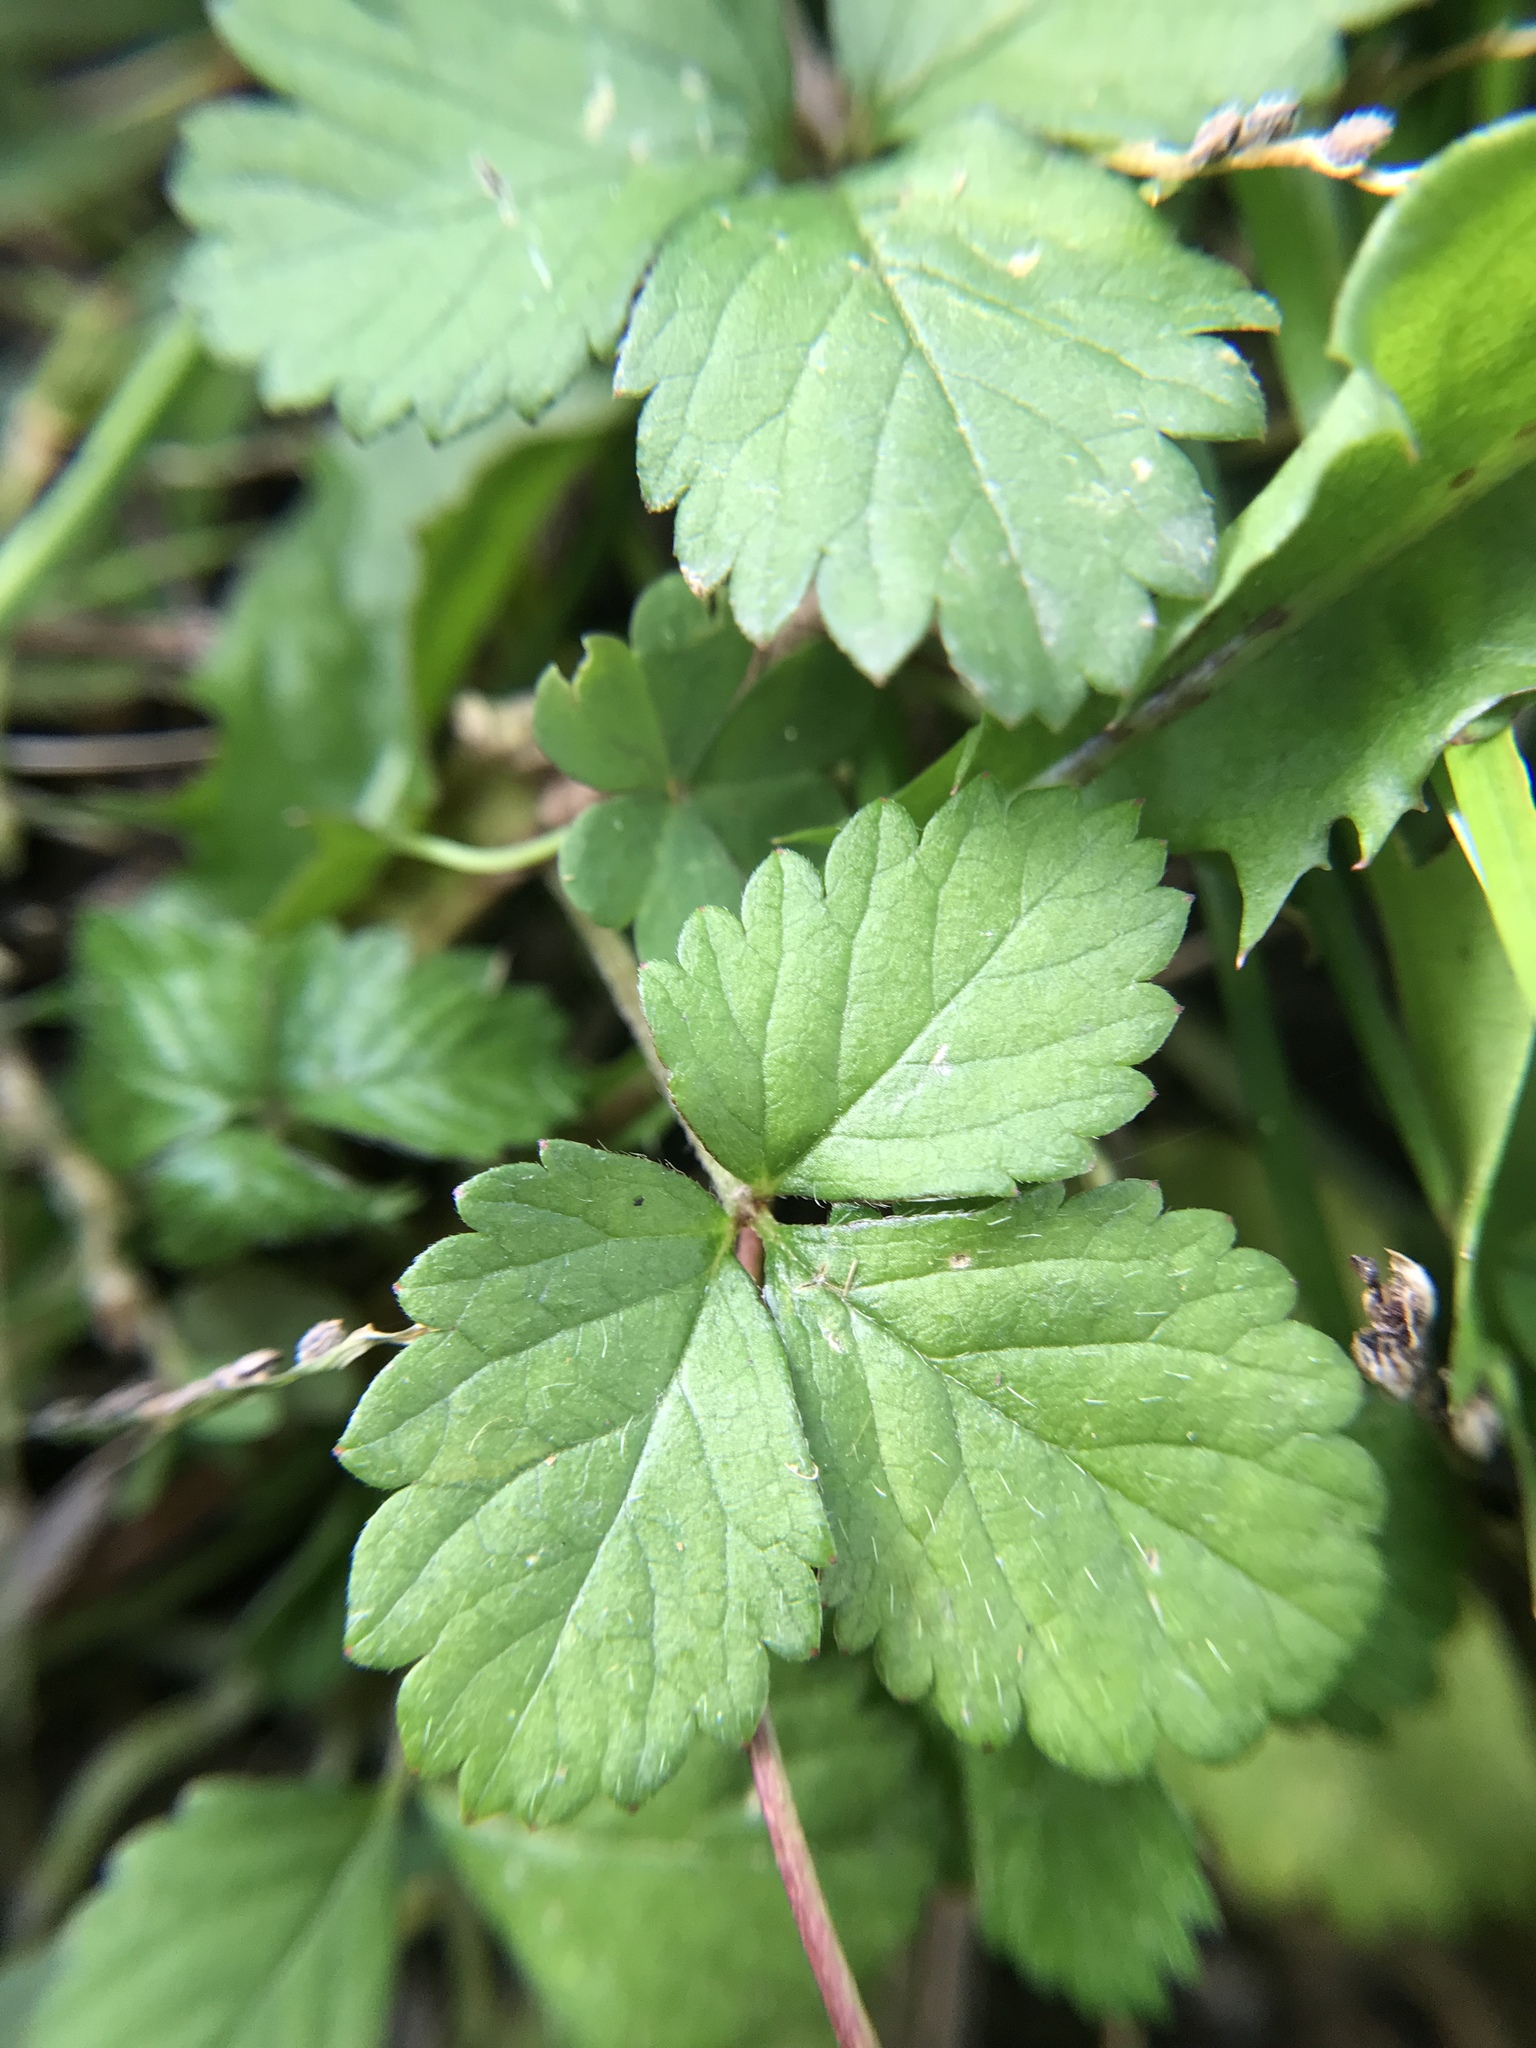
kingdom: Plantae
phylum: Tracheophyta
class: Magnoliopsida
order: Rosales
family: Rosaceae
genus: Potentilla
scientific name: Potentilla indica
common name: Yellow-flowered strawberry
